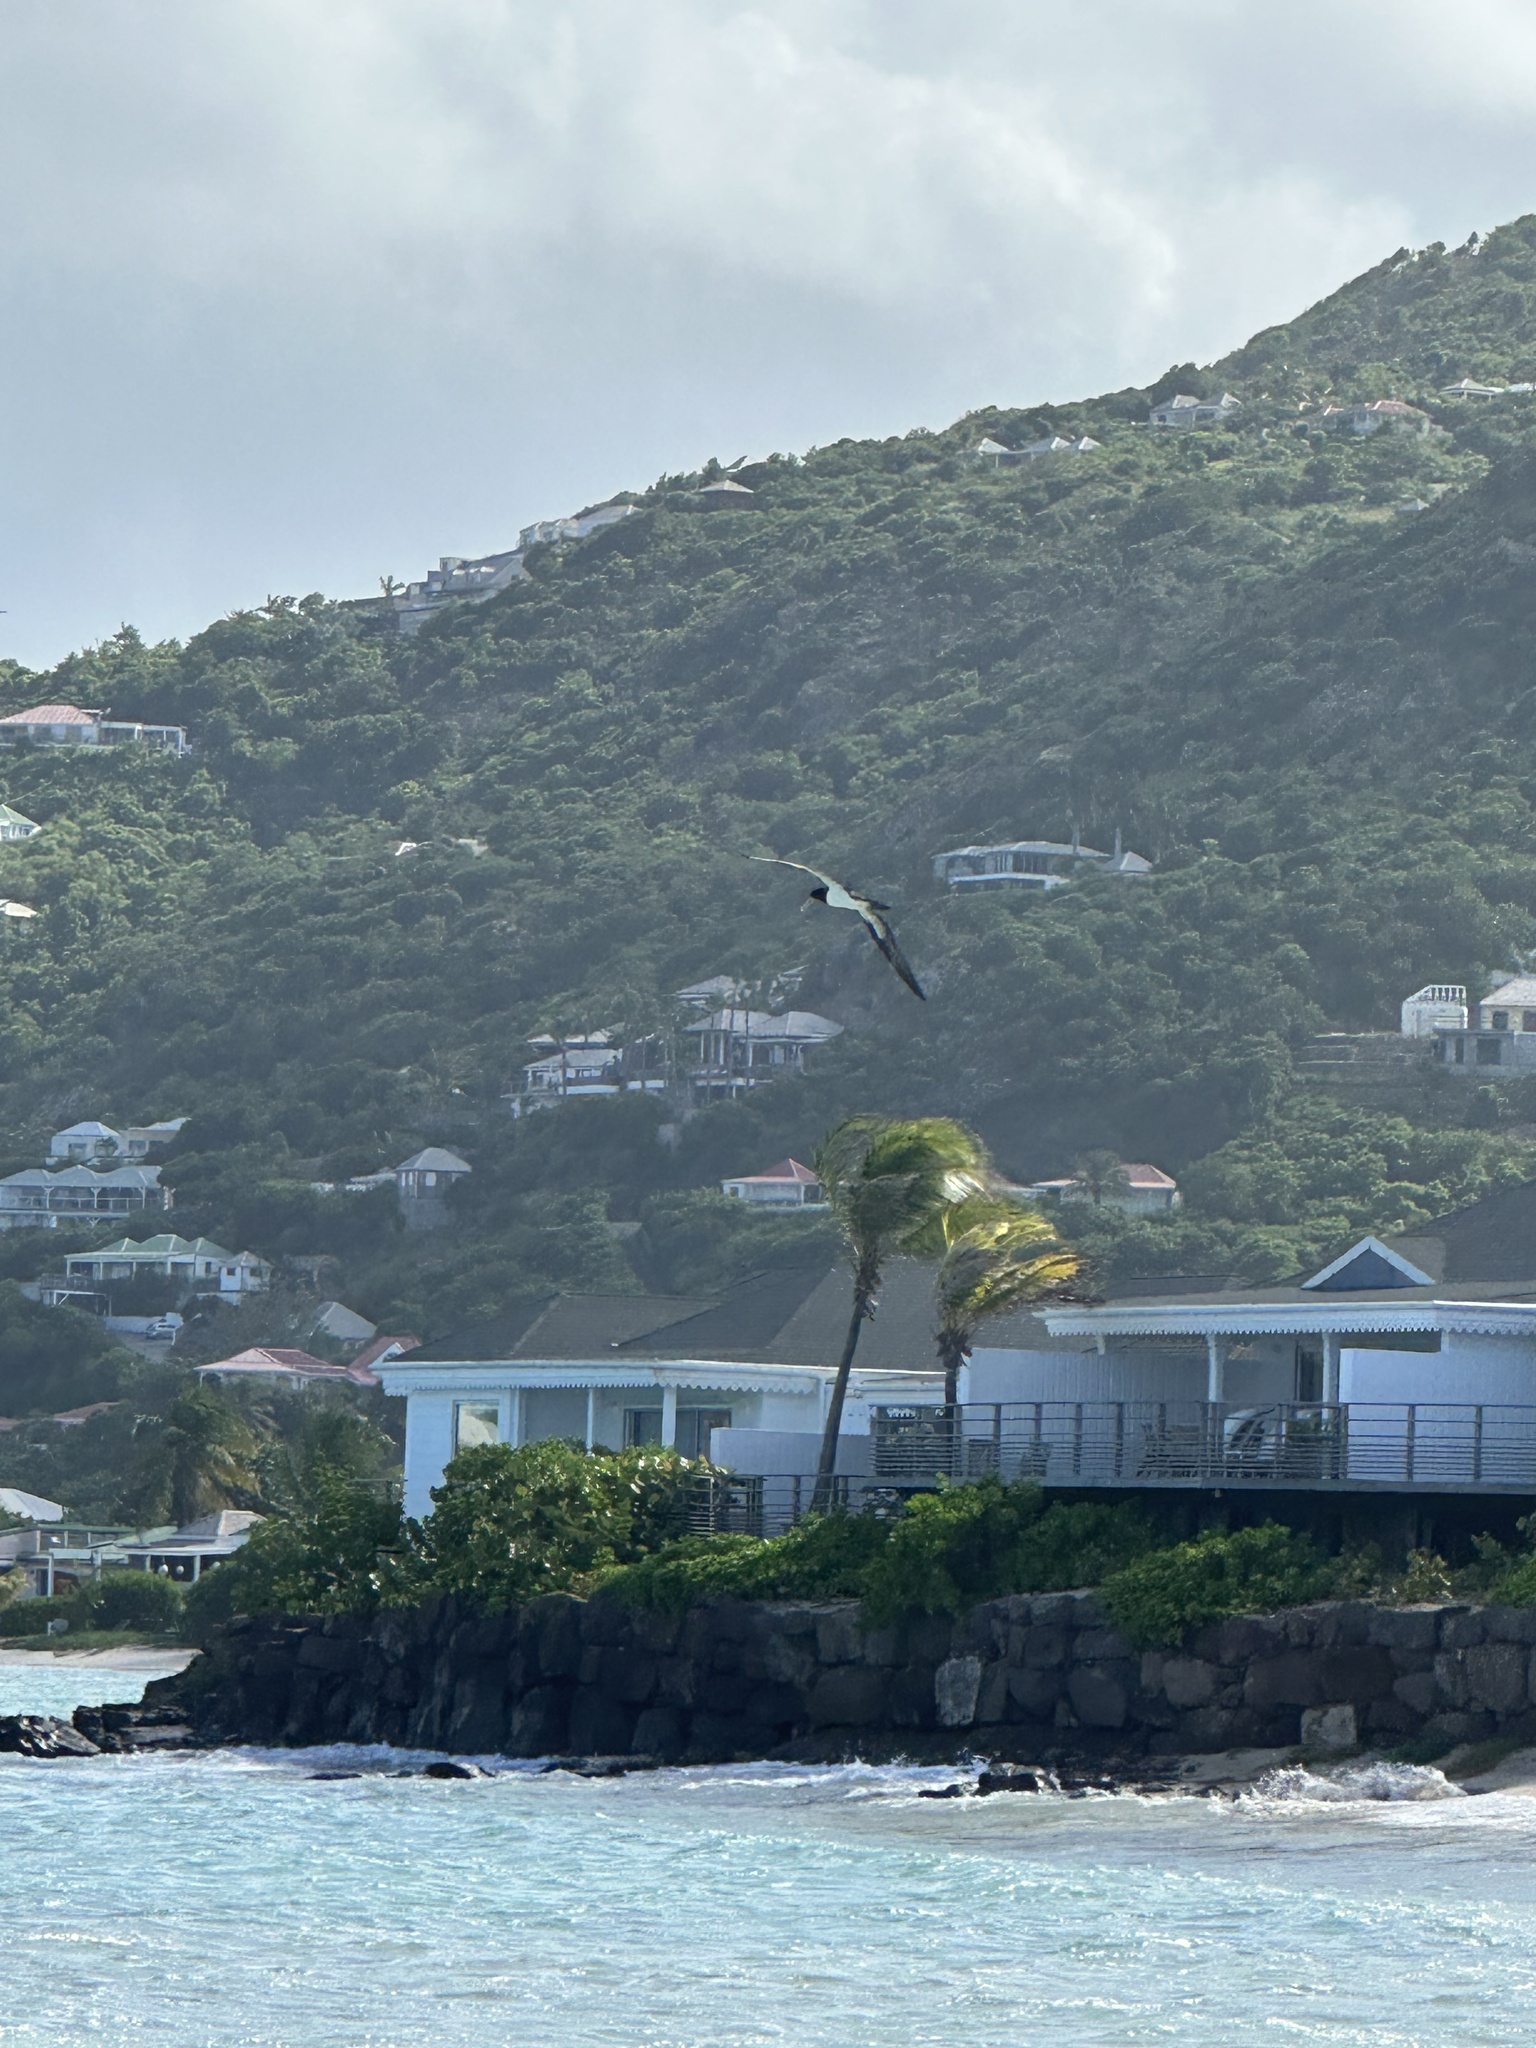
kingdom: Animalia
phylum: Chordata
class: Aves
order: Suliformes
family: Sulidae
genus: Sula
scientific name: Sula leucogaster
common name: Brown booby
